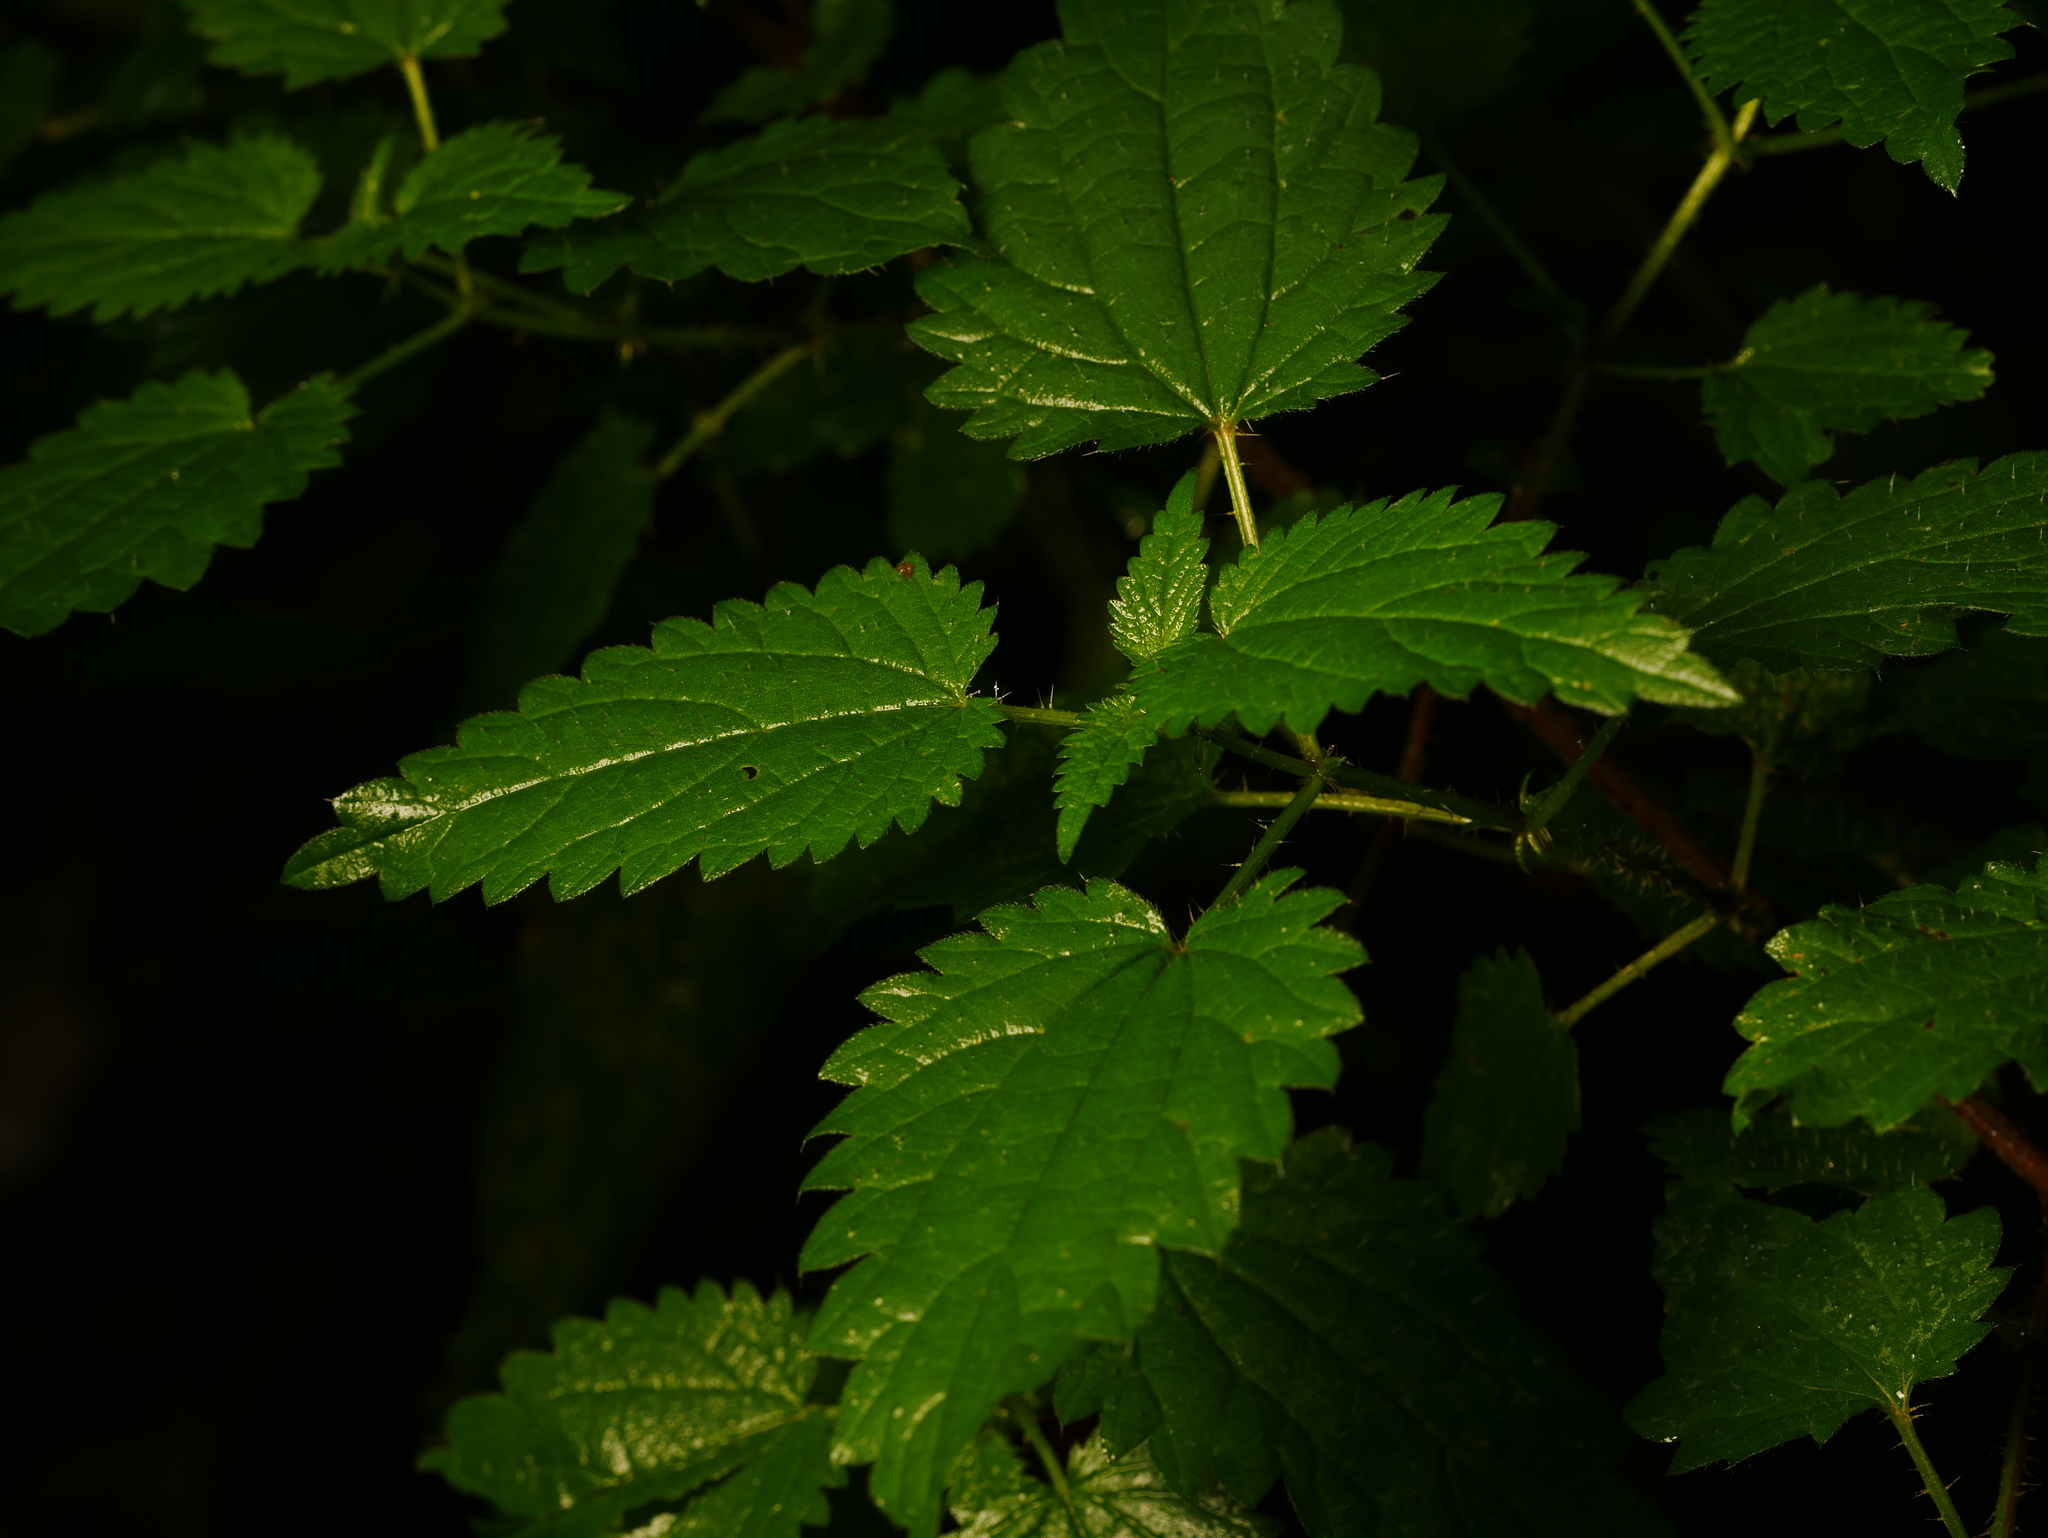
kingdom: Plantae
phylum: Tracheophyta
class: Magnoliopsida
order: Rosales
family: Urticaceae
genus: Urtica
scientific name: Urtica dioica
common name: Common nettle
